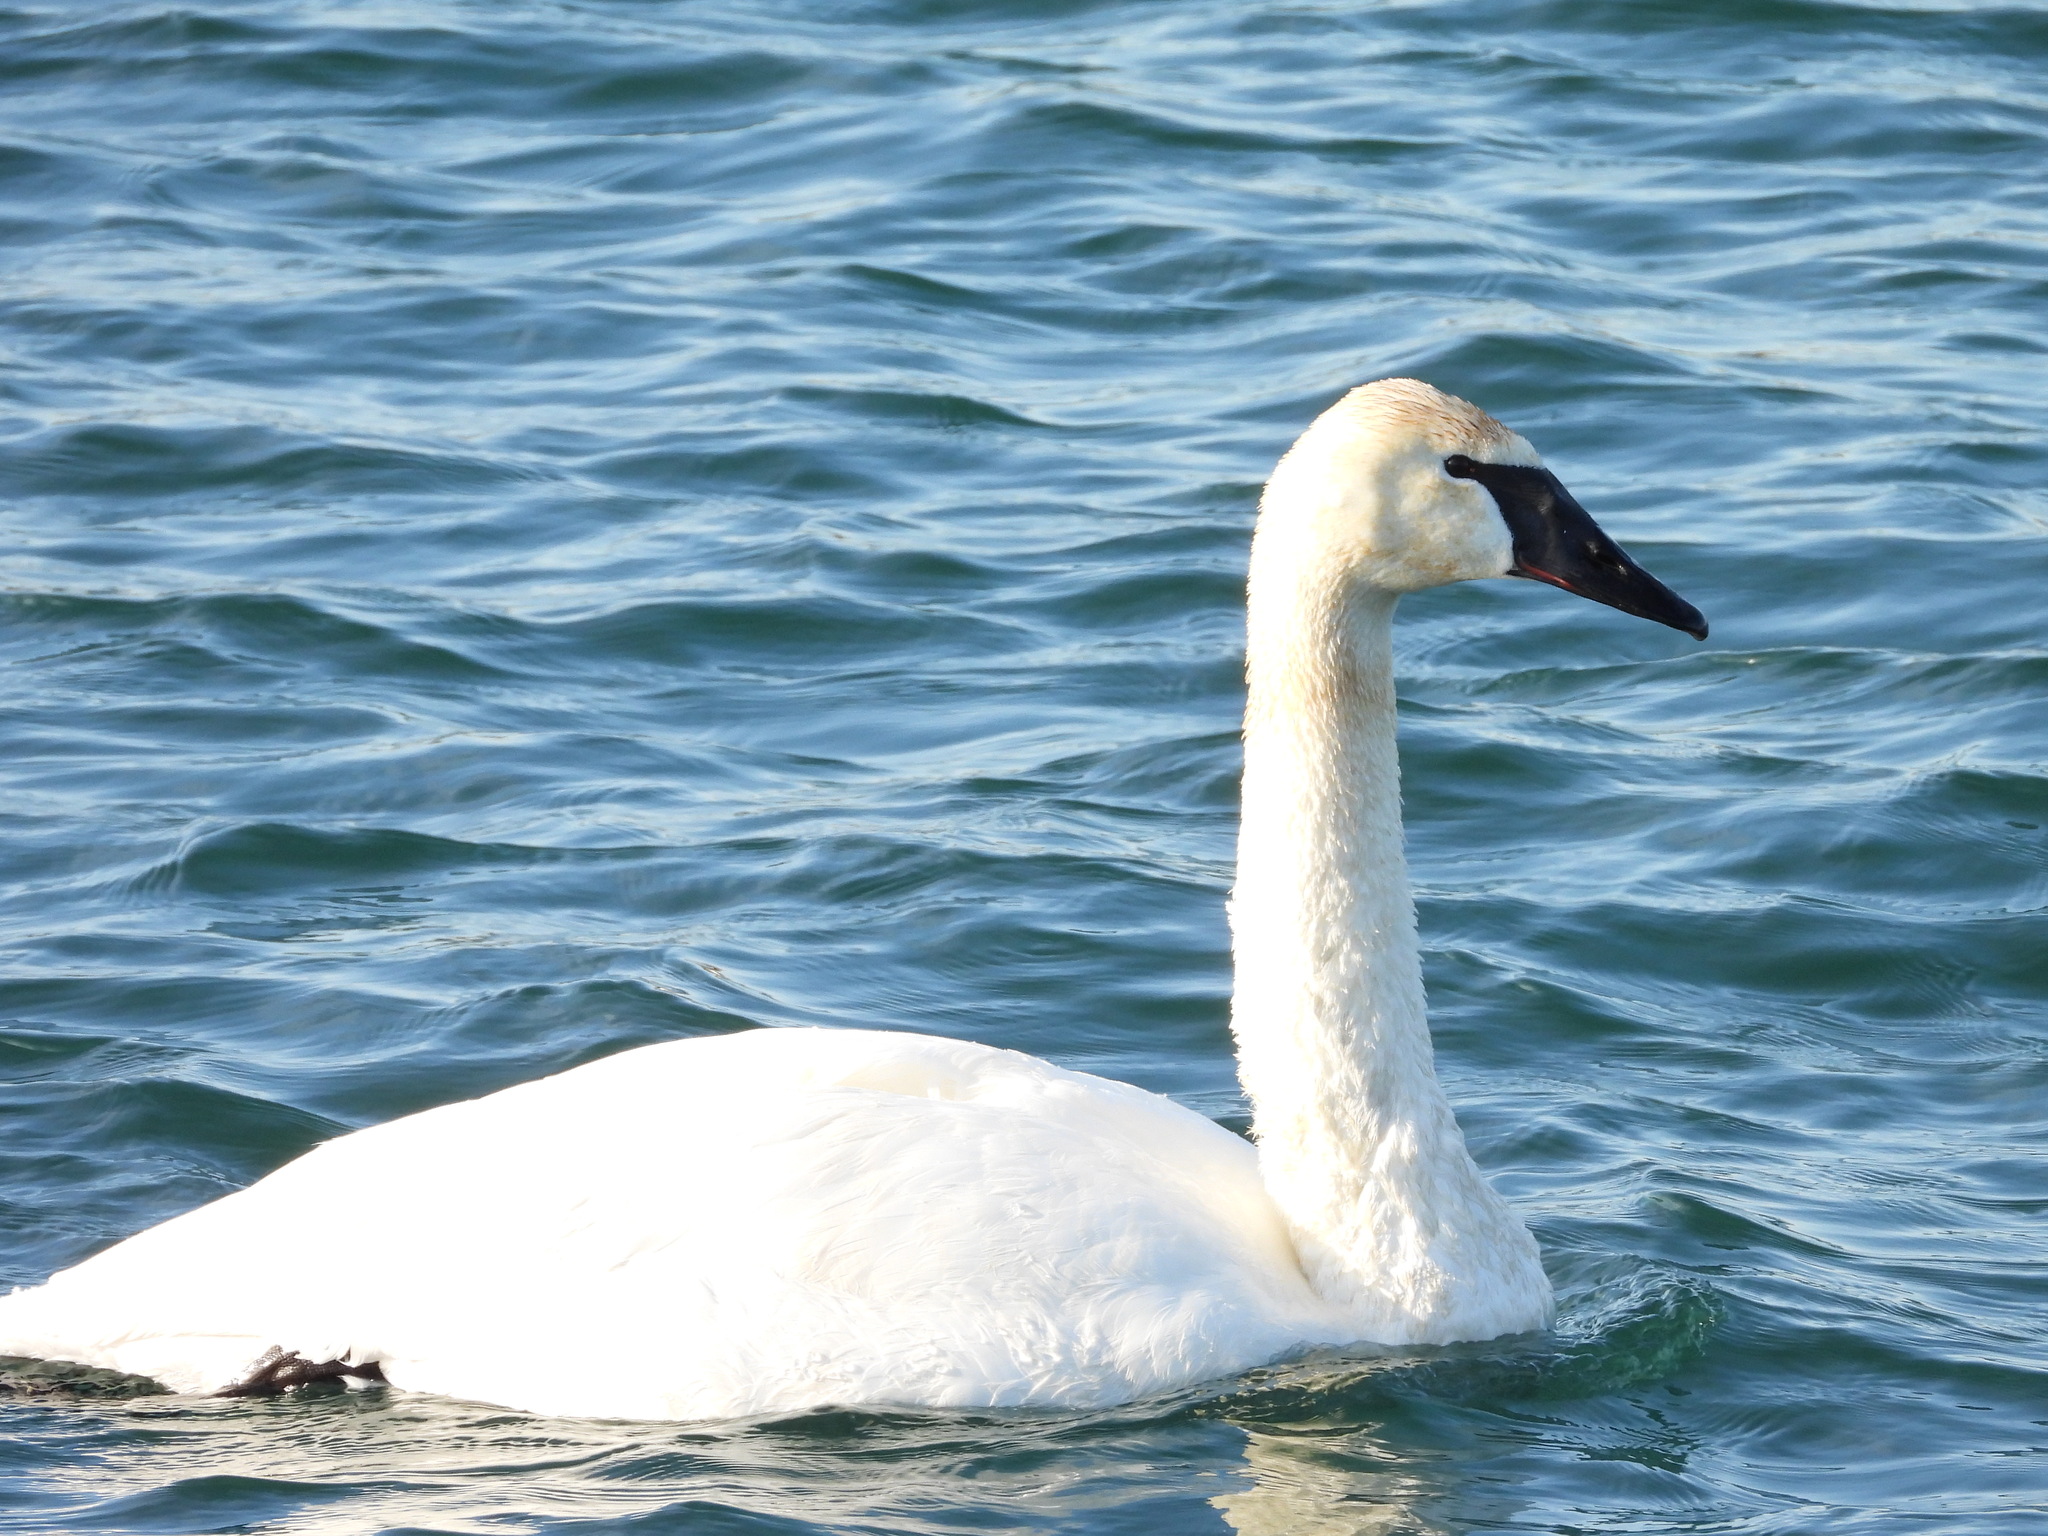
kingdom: Animalia
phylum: Chordata
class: Aves
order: Anseriformes
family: Anatidae
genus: Cygnus
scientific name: Cygnus buccinator
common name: Trumpeter swan
